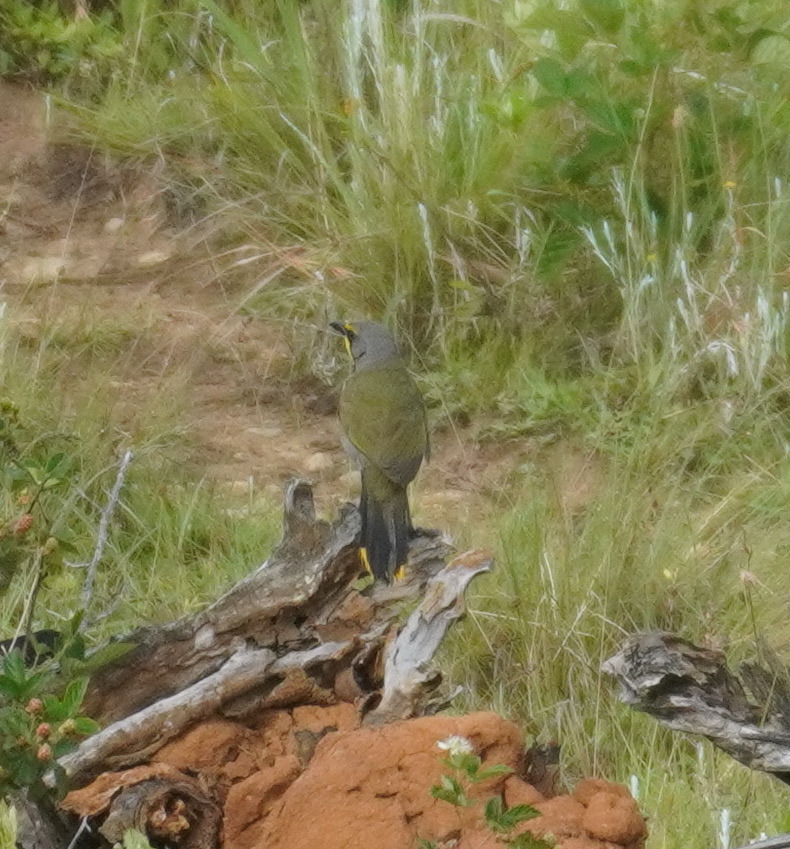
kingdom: Animalia
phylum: Chordata
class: Aves
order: Passeriformes
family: Malaconotidae
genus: Telophorus
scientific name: Telophorus zeylonus
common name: Bokmakierie
